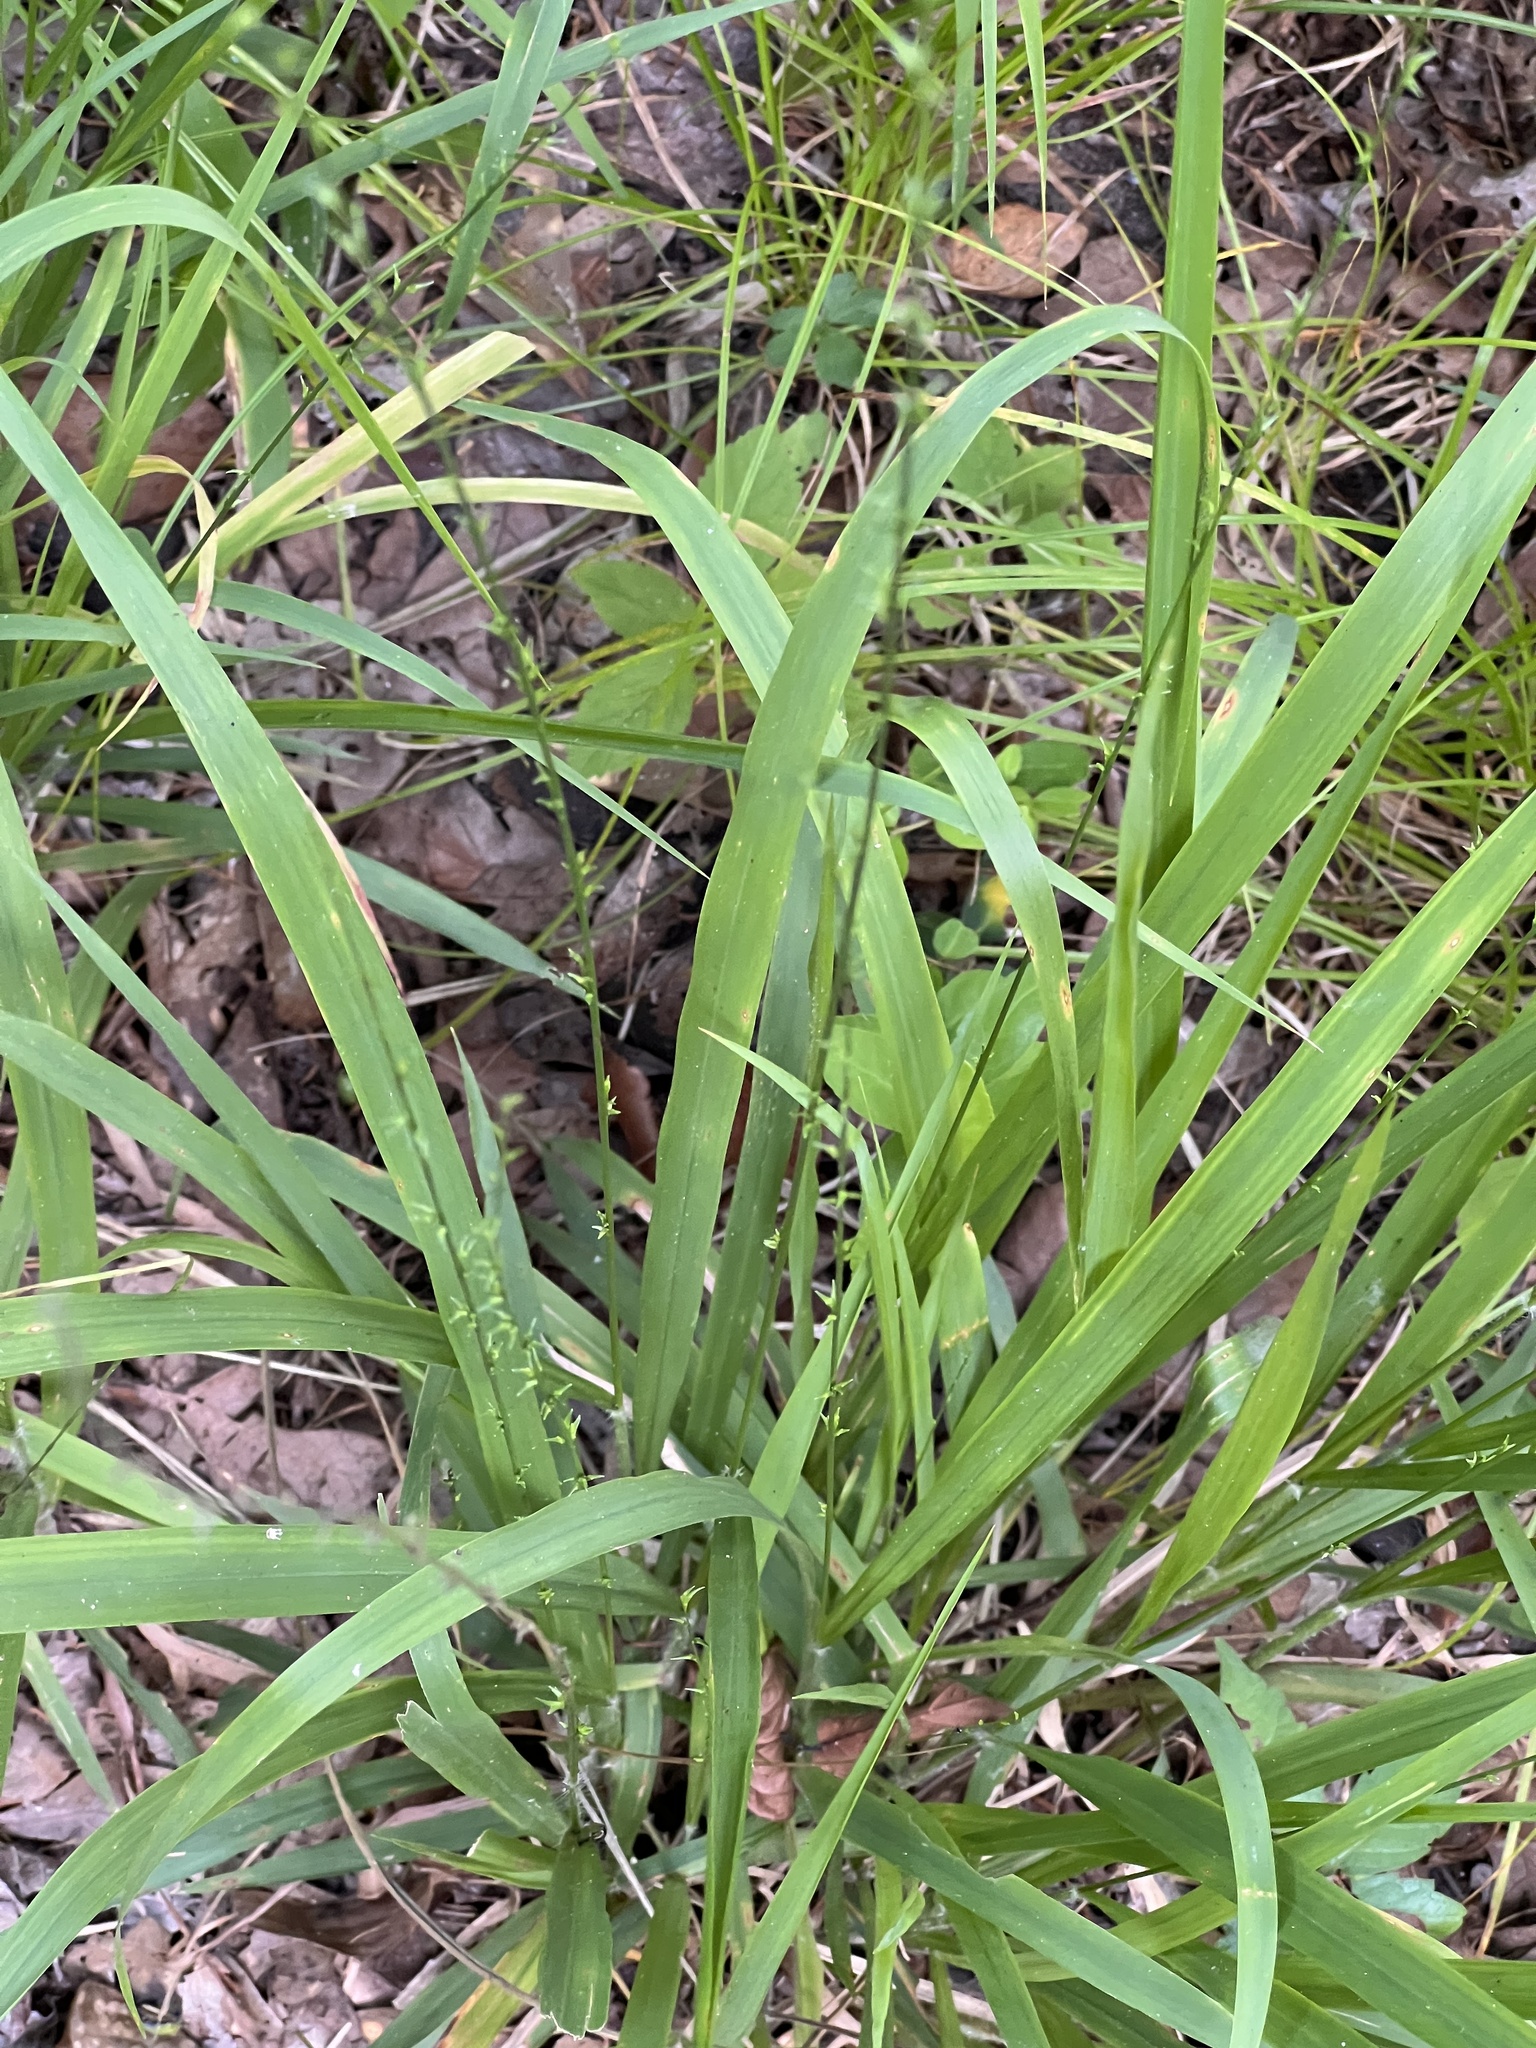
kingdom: Plantae
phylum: Tracheophyta
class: Liliopsida
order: Poales
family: Poaceae
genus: Chasmanthium
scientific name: Chasmanthium laxum
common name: Slender chasmanthium
